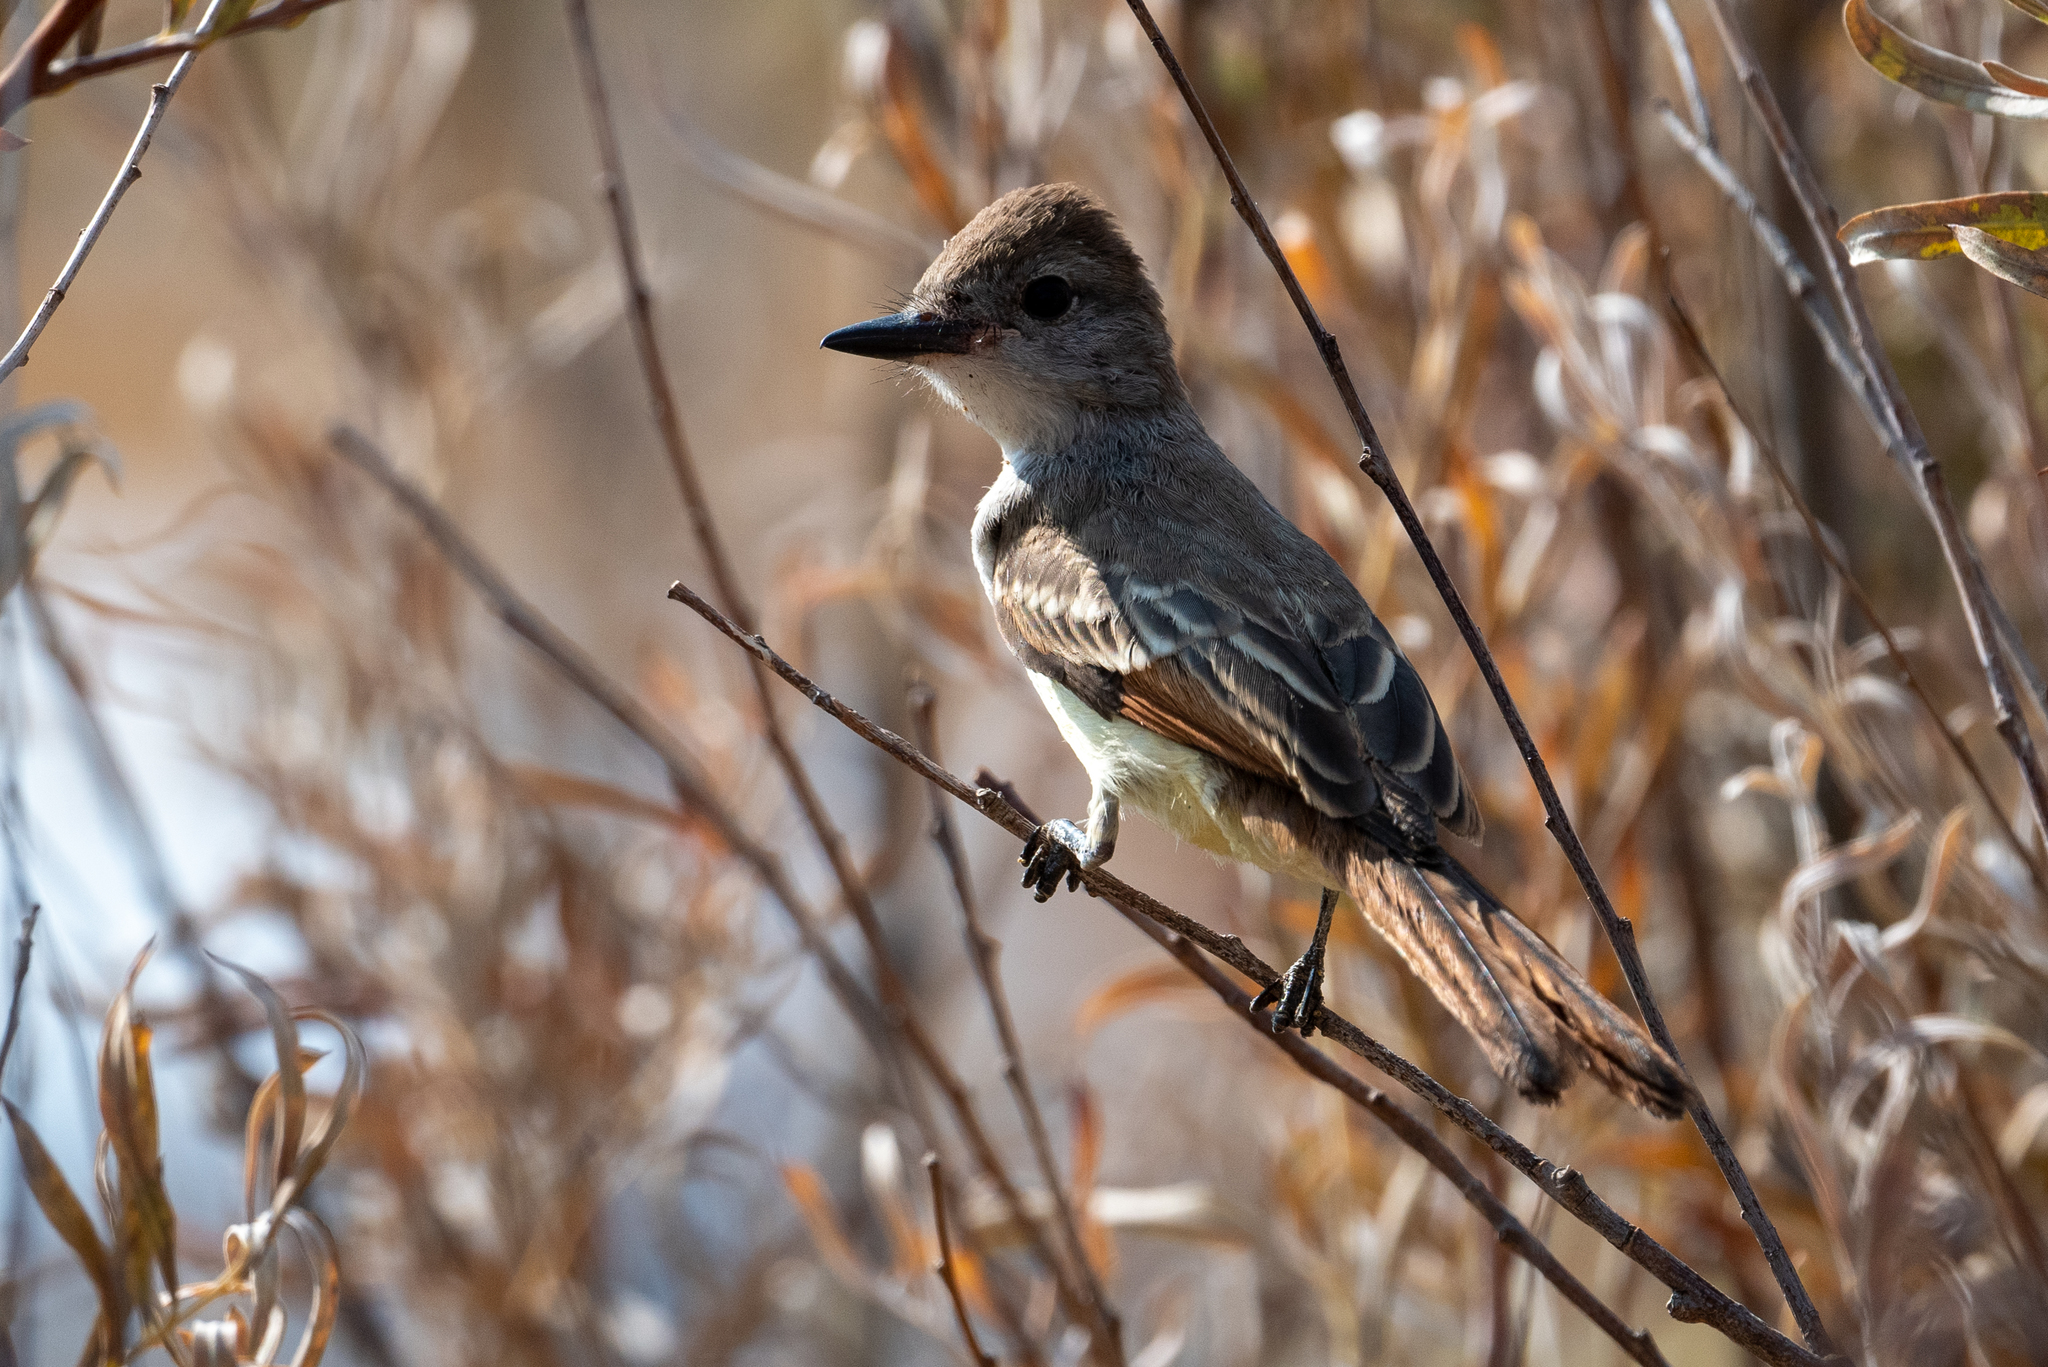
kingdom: Animalia
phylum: Chordata
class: Aves
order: Passeriformes
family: Tyrannidae
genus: Myiarchus
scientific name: Myiarchus cinerascens
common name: Ash-throated flycatcher
